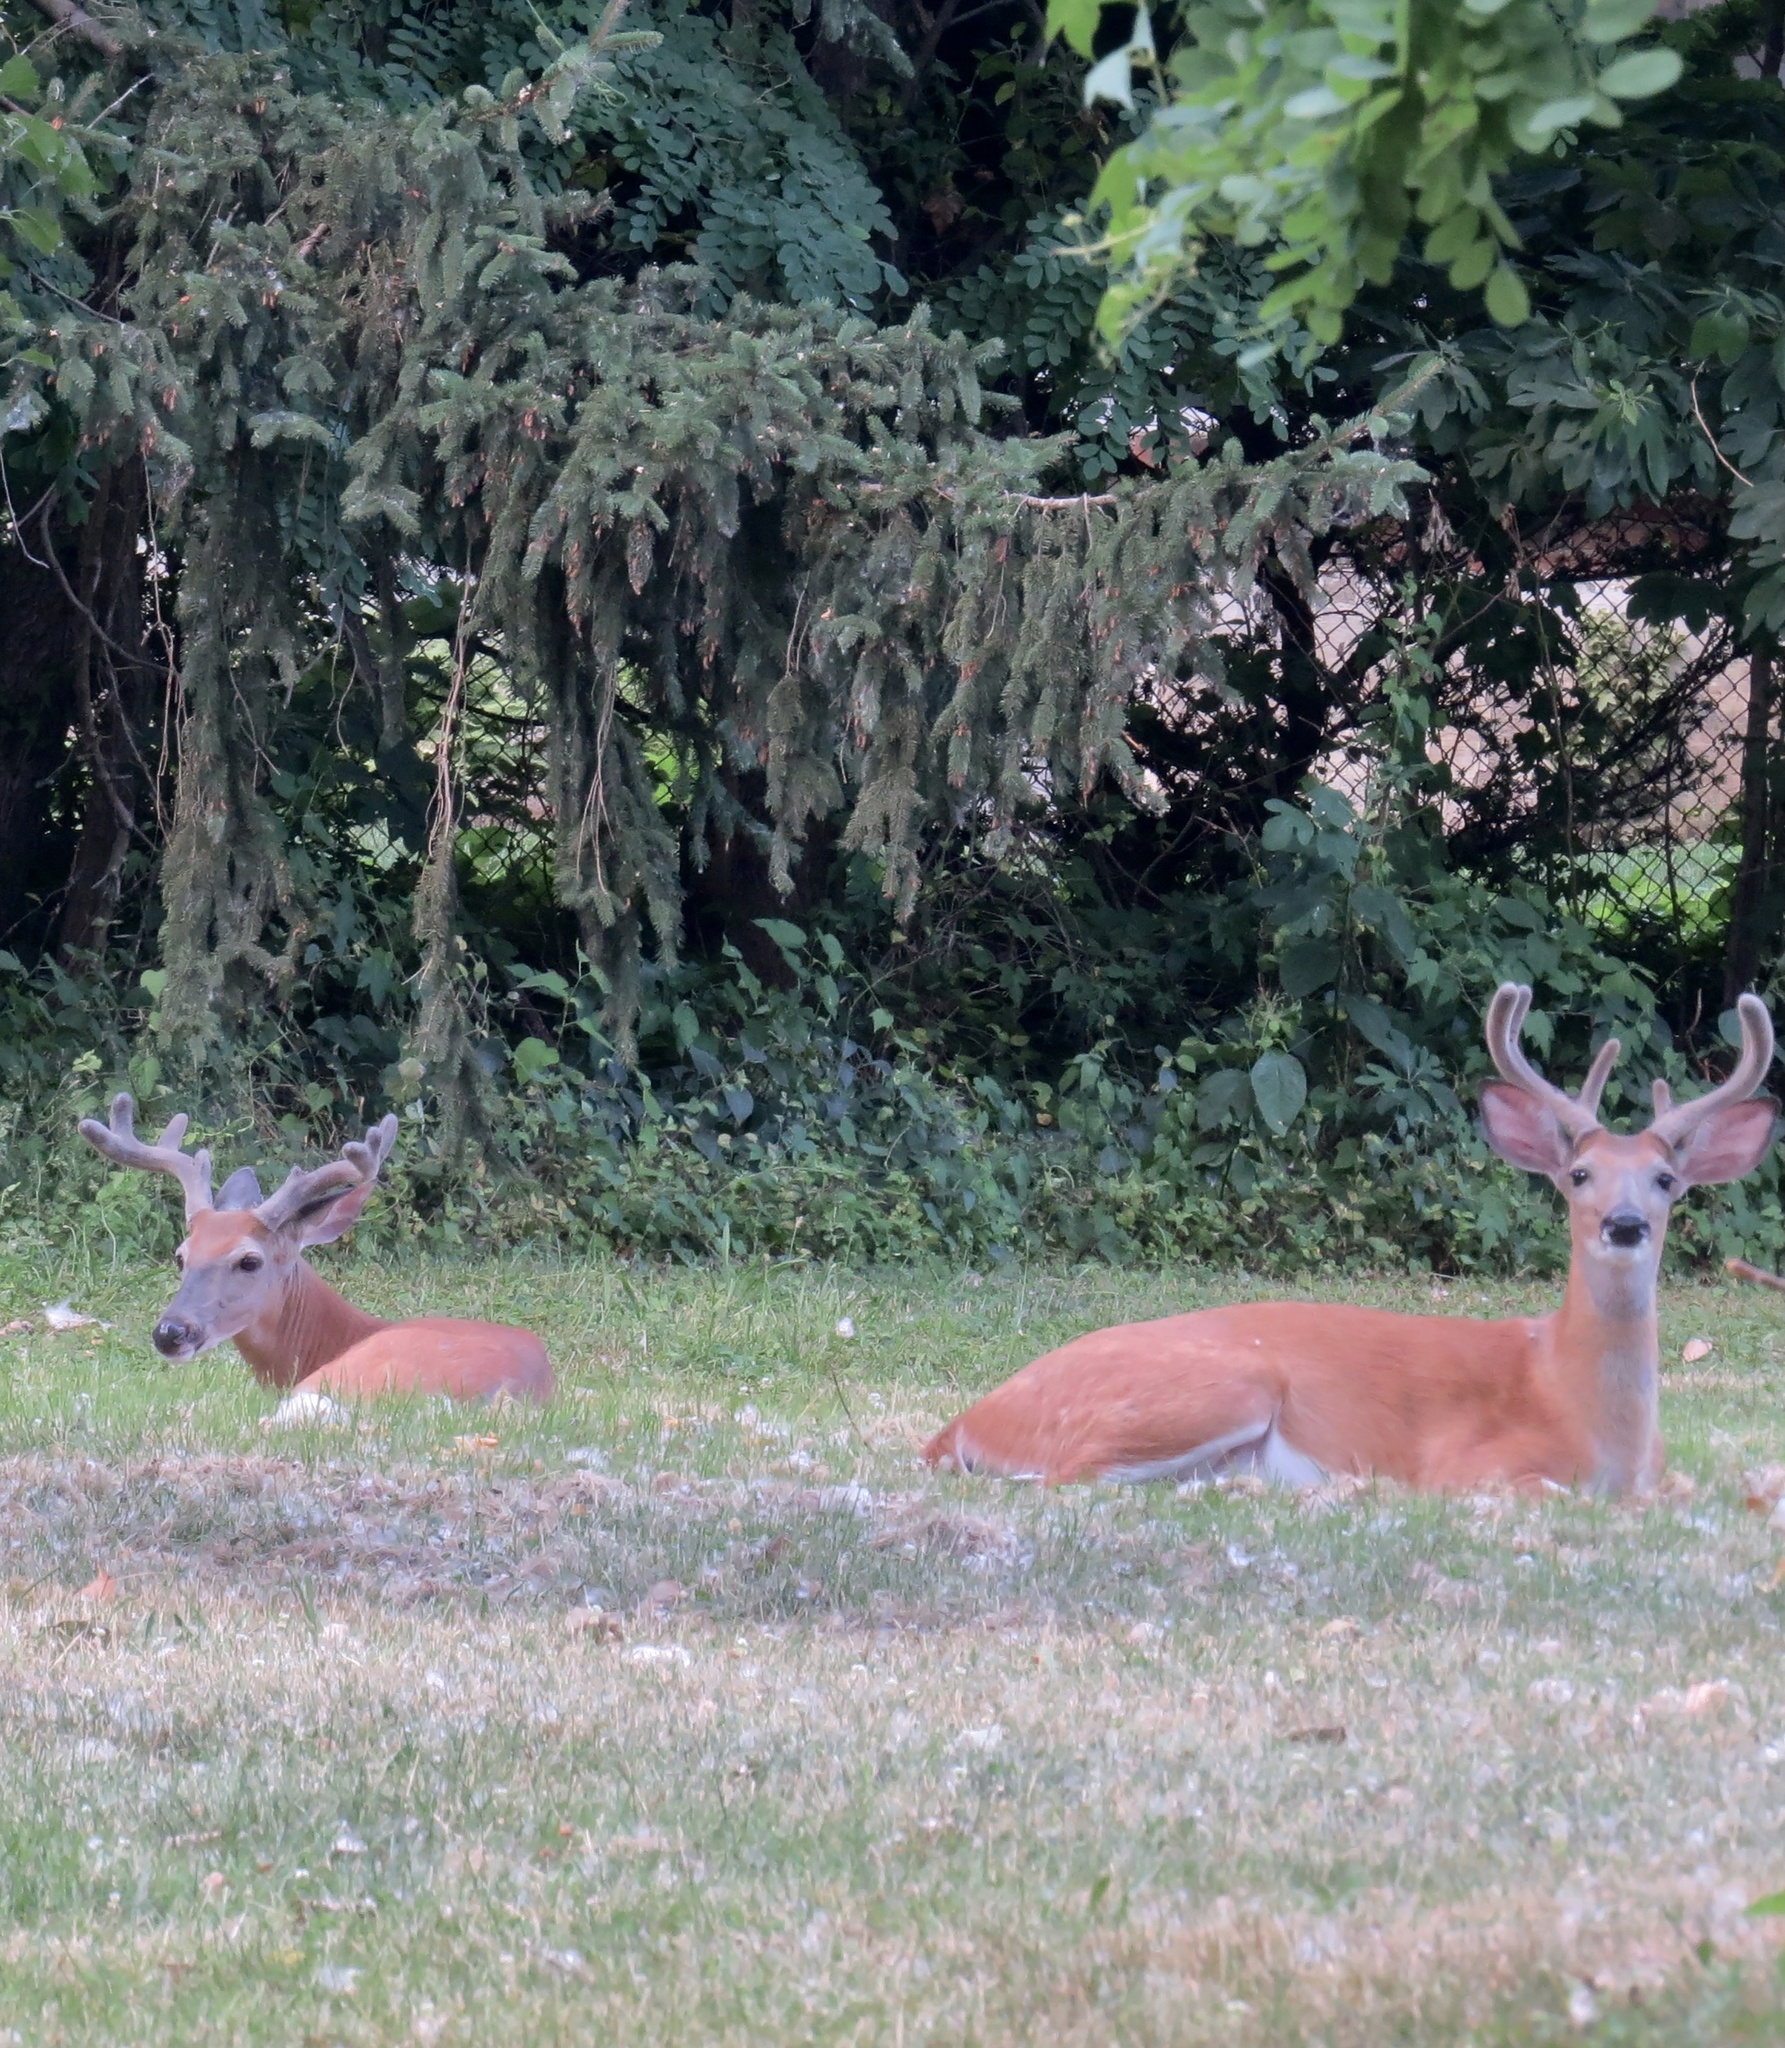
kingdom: Animalia
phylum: Chordata
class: Mammalia
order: Artiodactyla
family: Cervidae
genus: Odocoileus
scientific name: Odocoileus virginianus
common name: White-tailed deer
